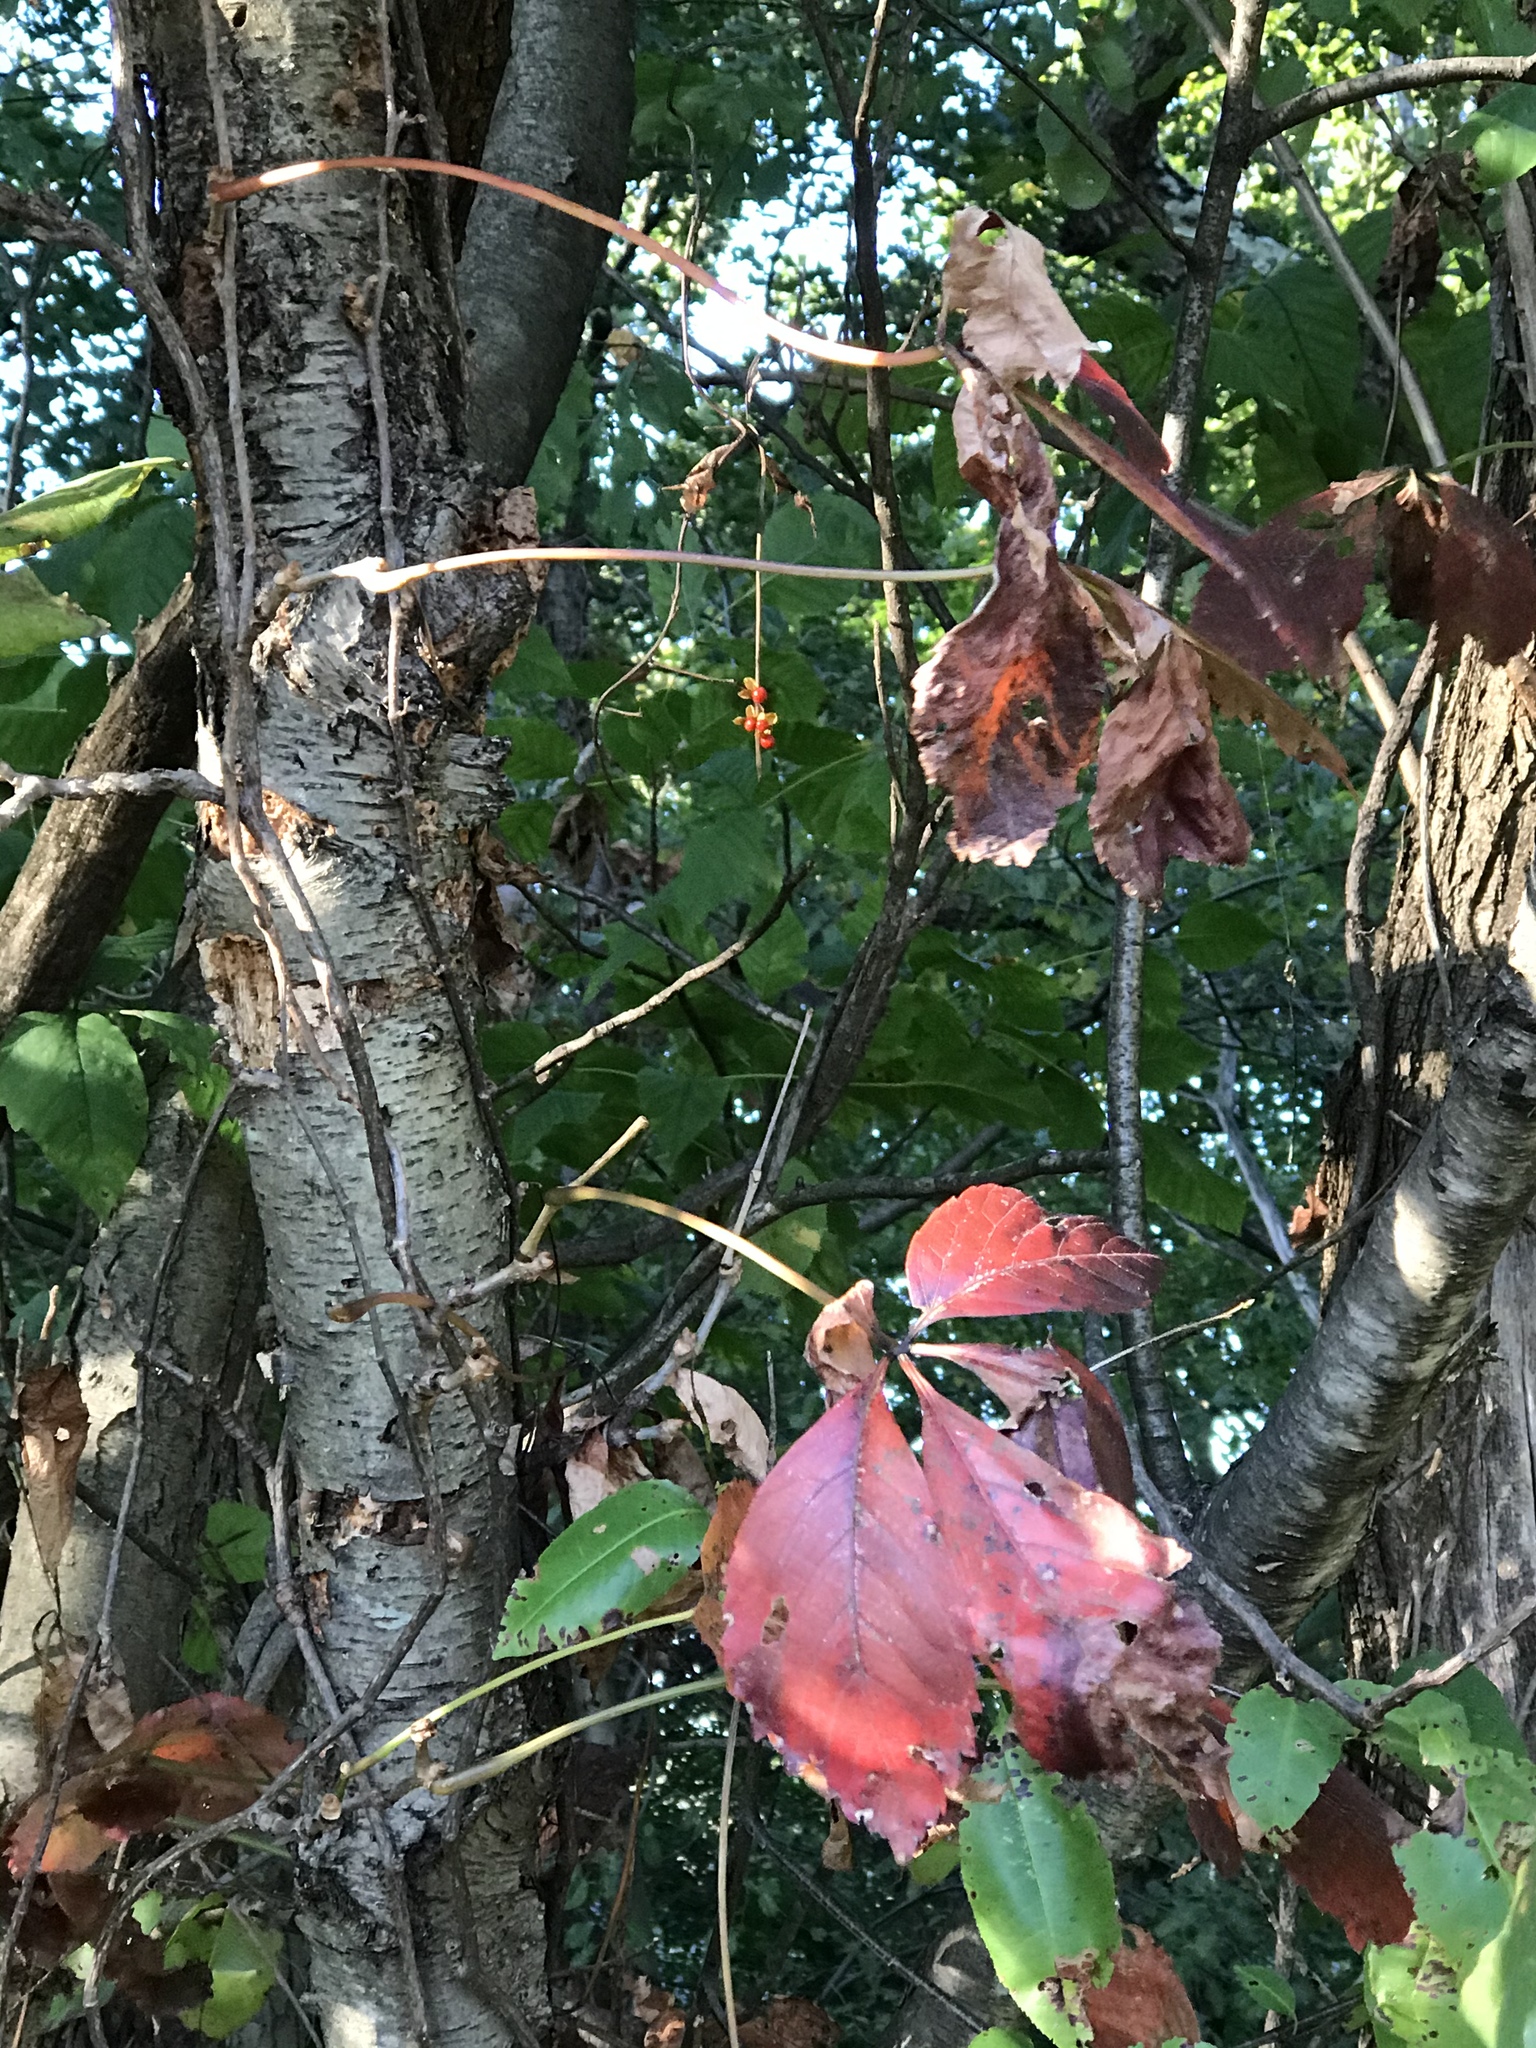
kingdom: Plantae
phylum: Tracheophyta
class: Magnoliopsida
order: Vitales
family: Vitaceae
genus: Parthenocissus
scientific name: Parthenocissus quinquefolia
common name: Virginia-creeper
